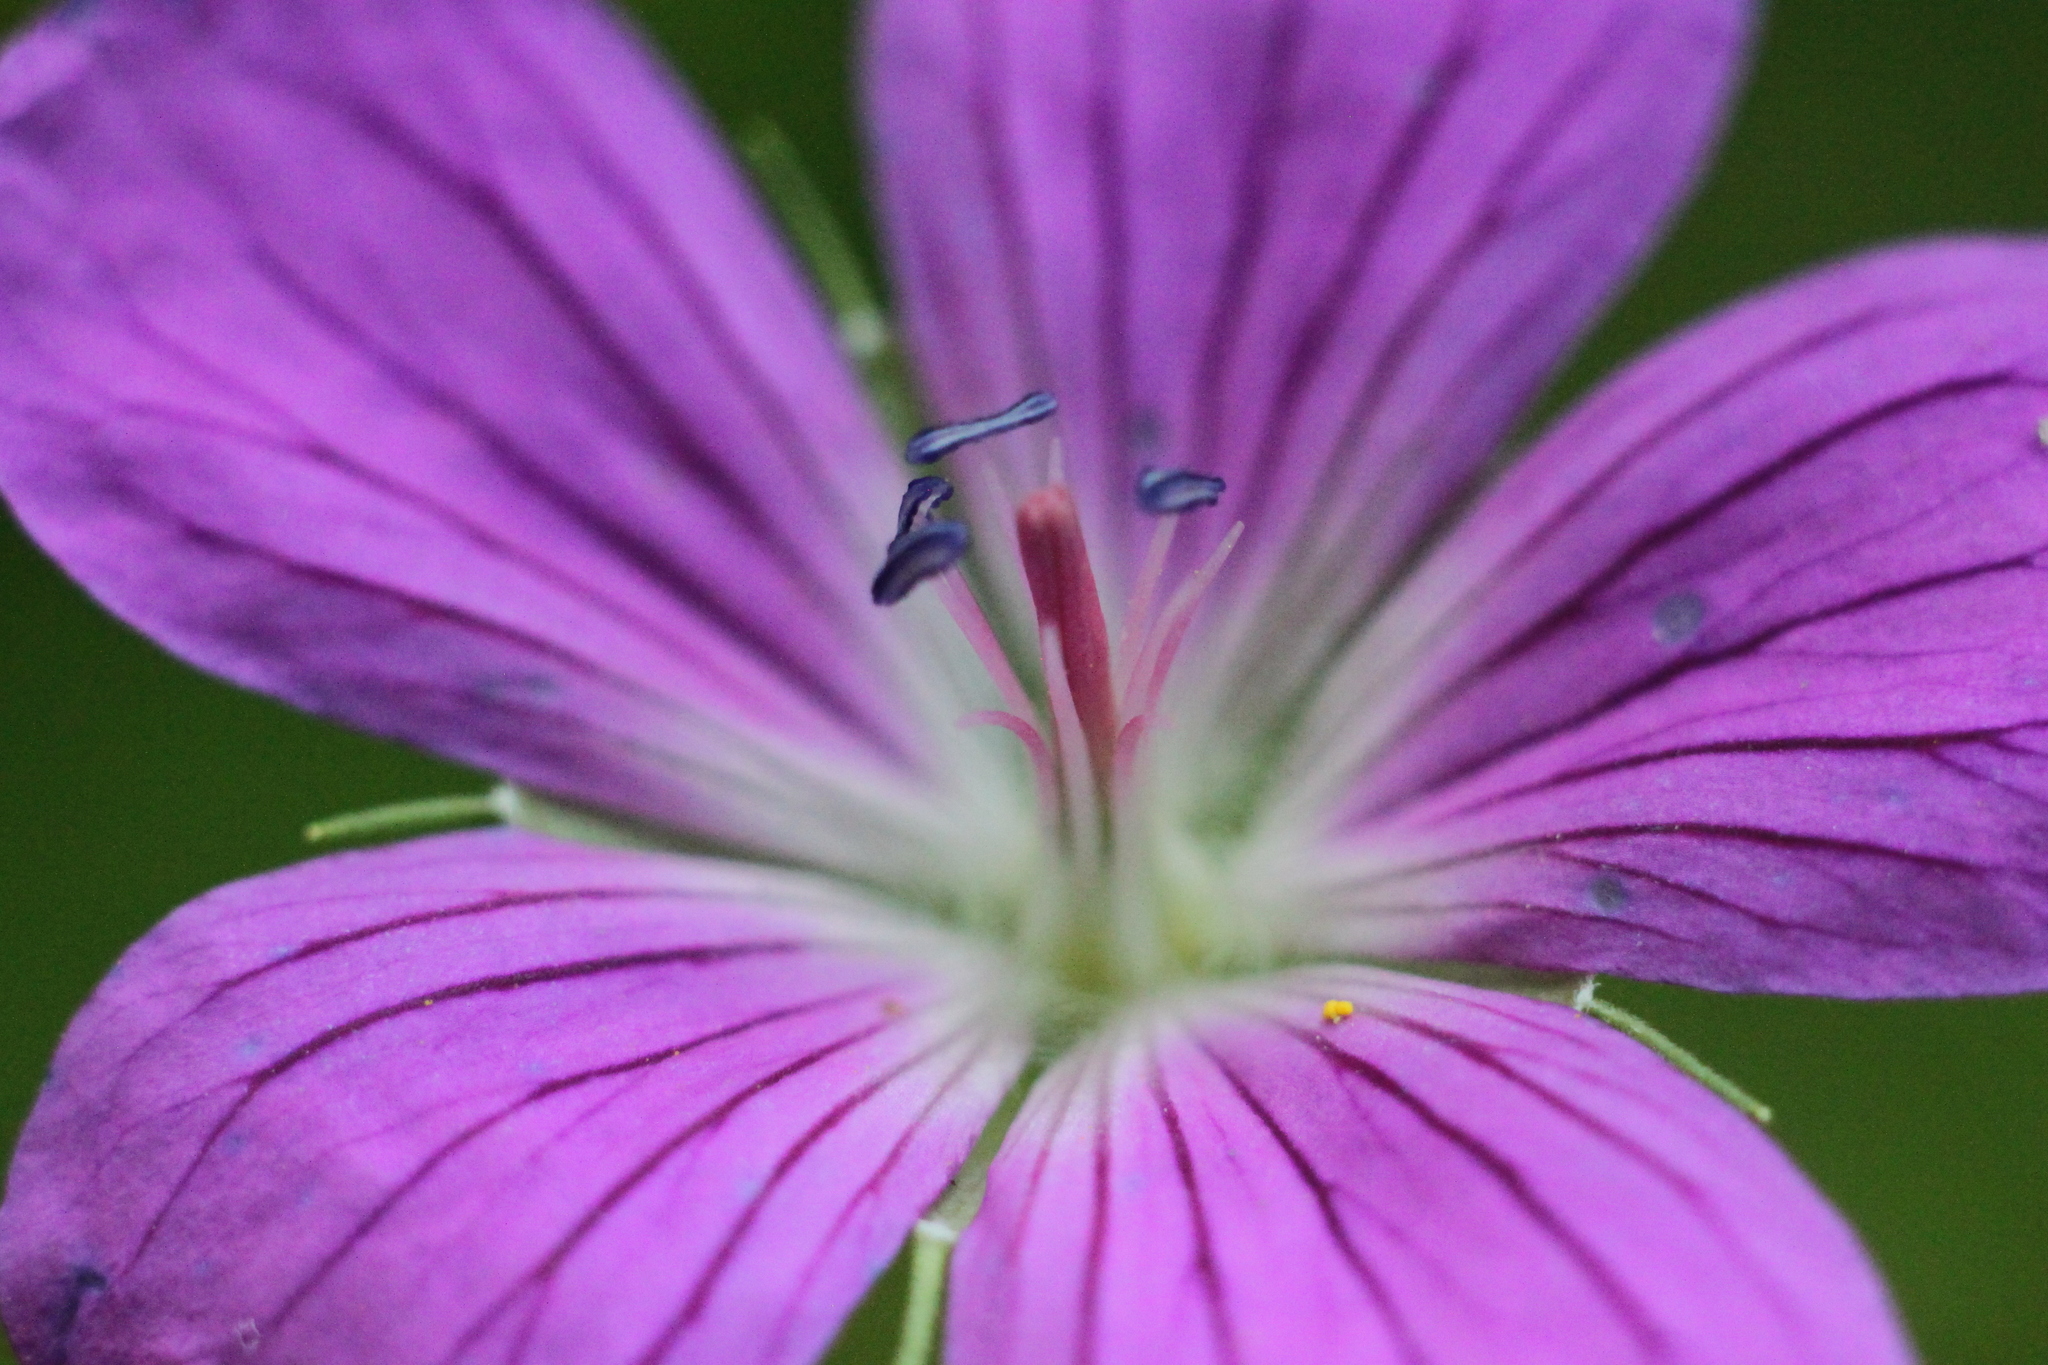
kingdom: Plantae
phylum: Tracheophyta
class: Magnoliopsida
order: Geraniales
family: Geraniaceae
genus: Geranium
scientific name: Geranium palustre
